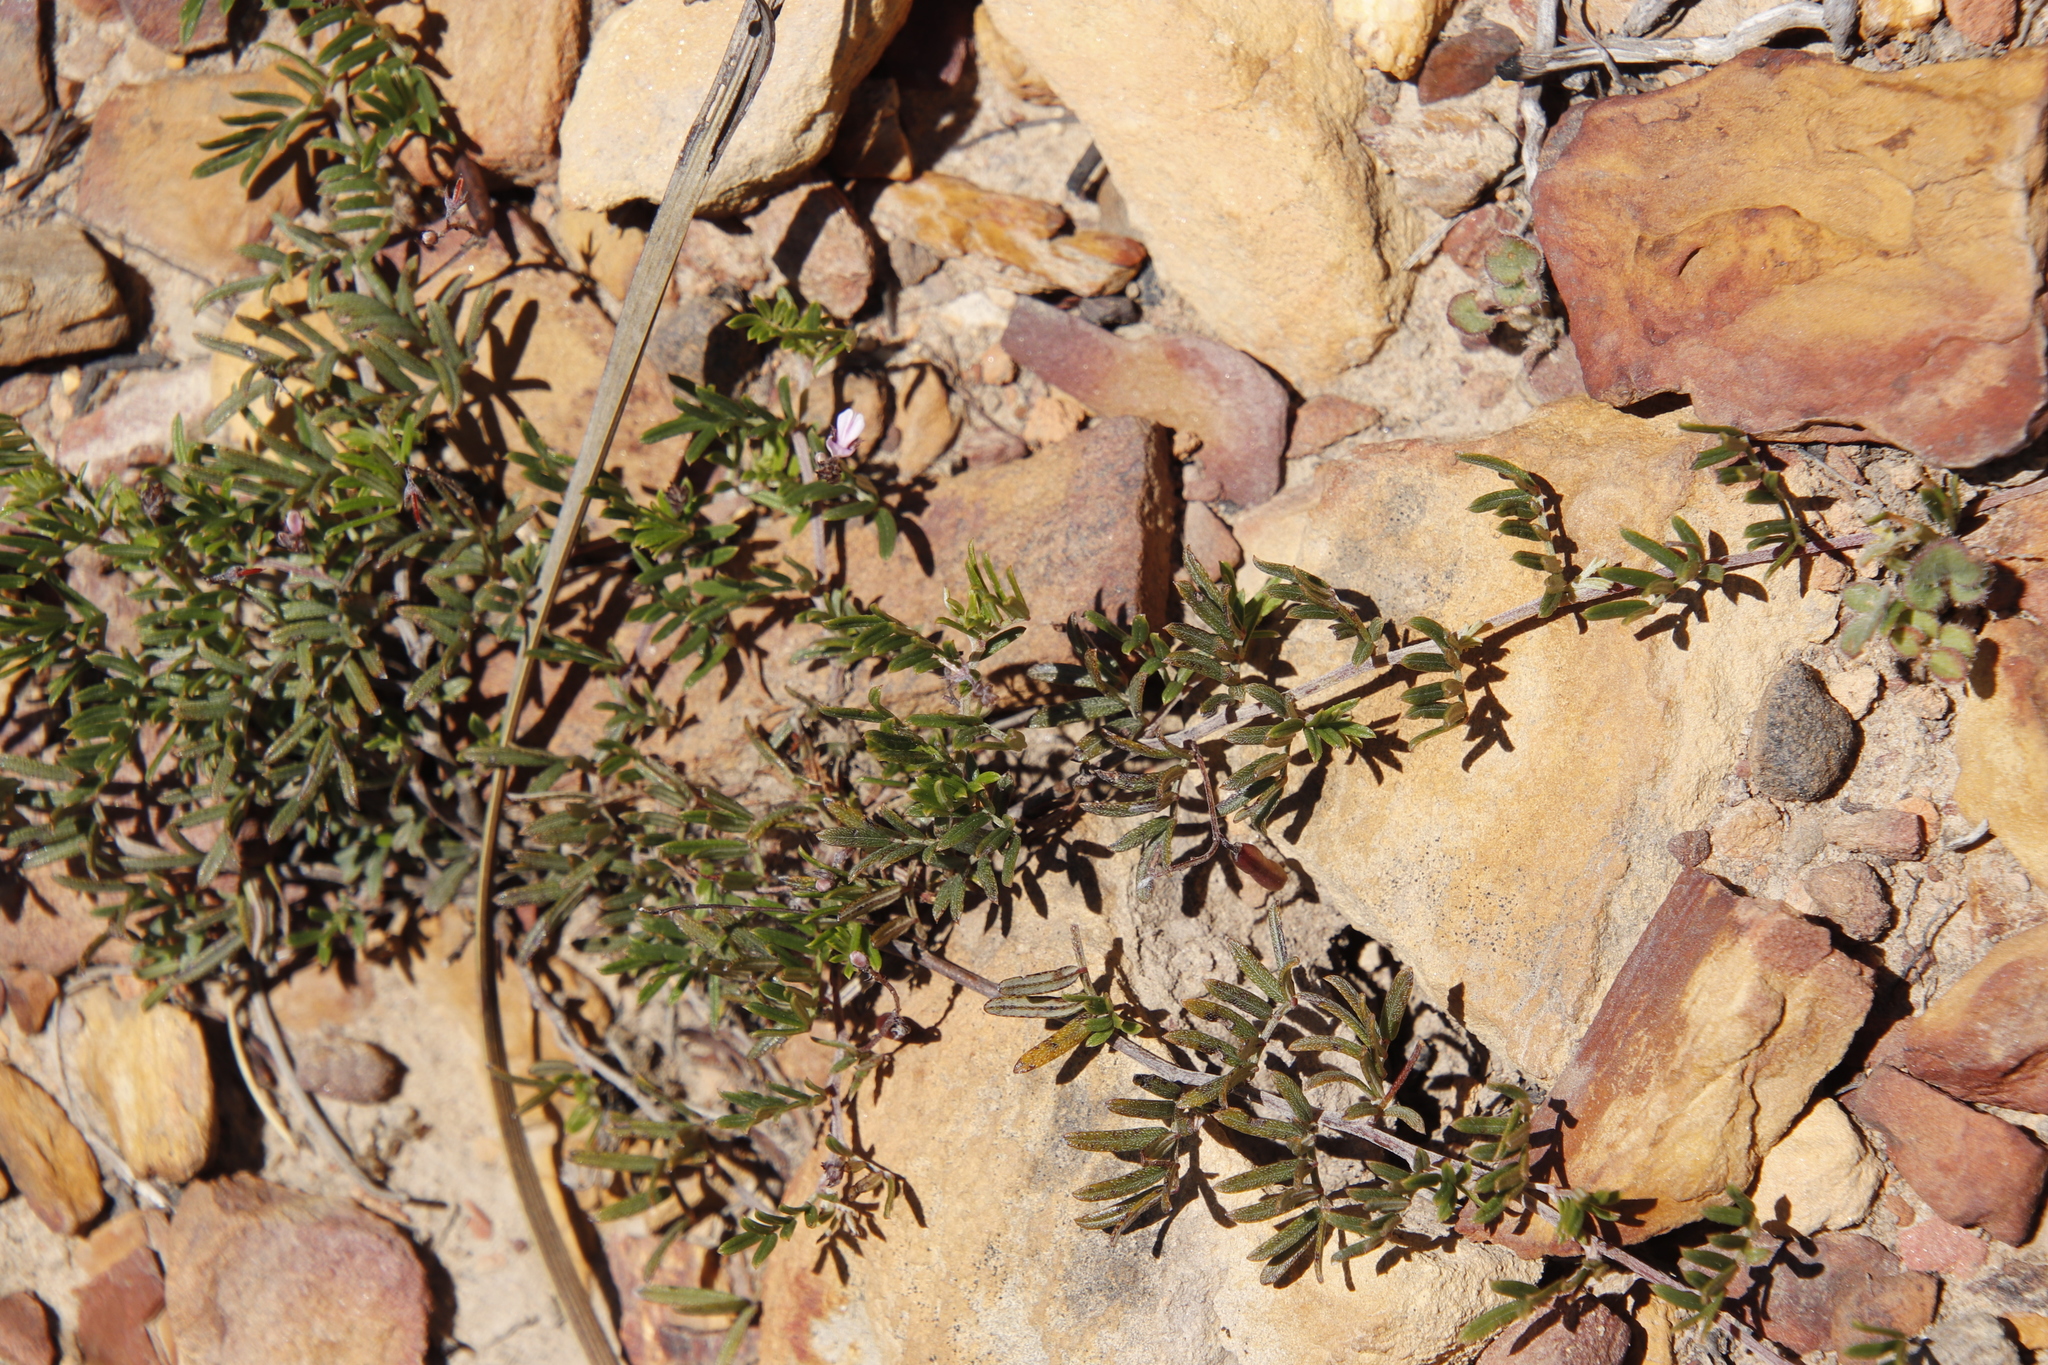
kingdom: Plantae
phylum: Tracheophyta
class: Magnoliopsida
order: Fabales
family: Fabaceae
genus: Indigofera
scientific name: Indigofera angustifolia
